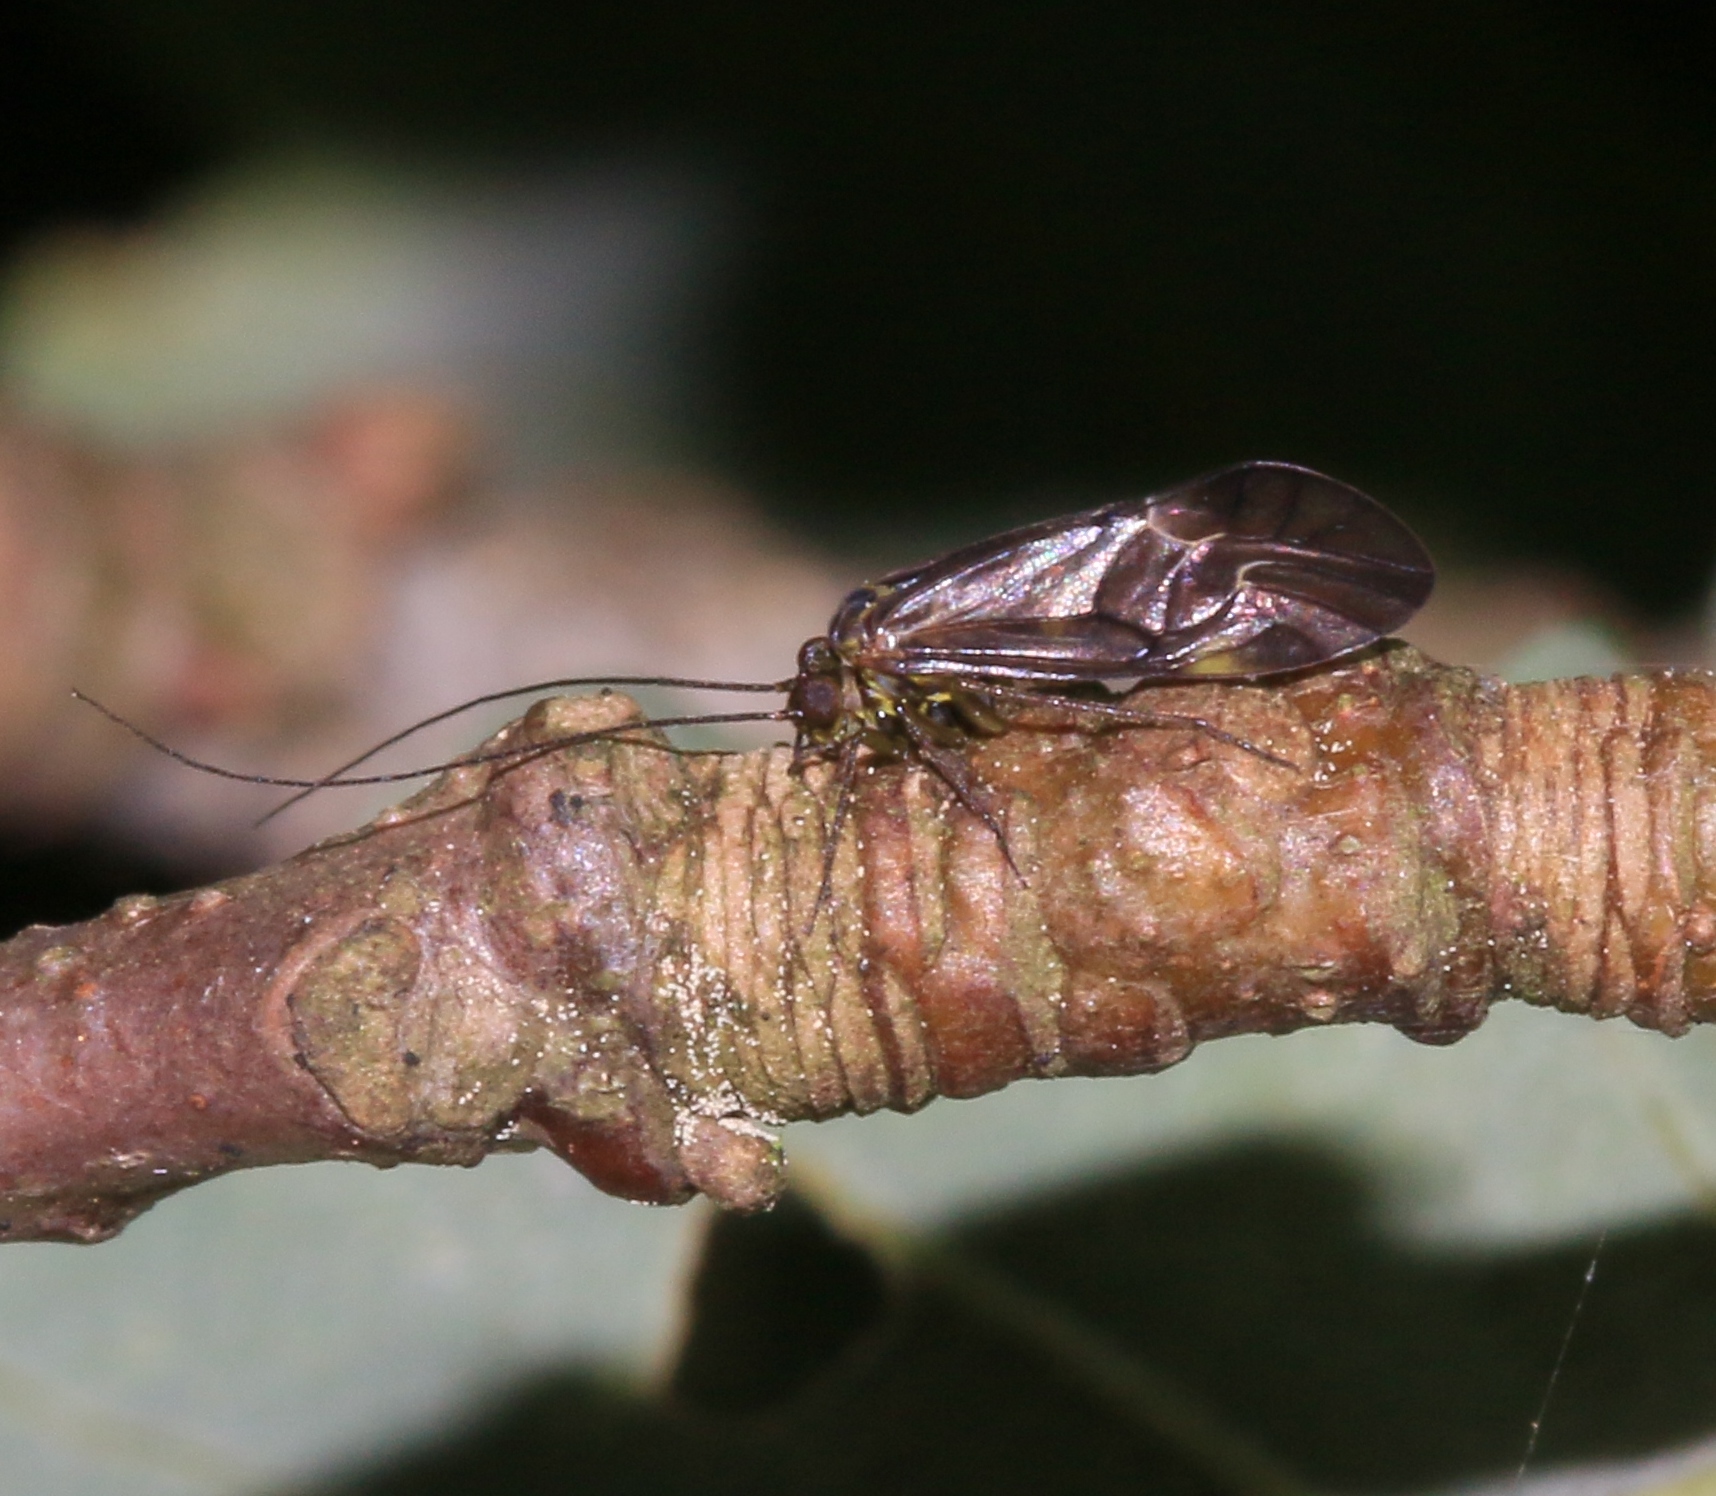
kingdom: Animalia
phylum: Arthropoda
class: Insecta
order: Psocodea
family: Psocidae
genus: Metylophorus
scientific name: Metylophorus nebulosus
